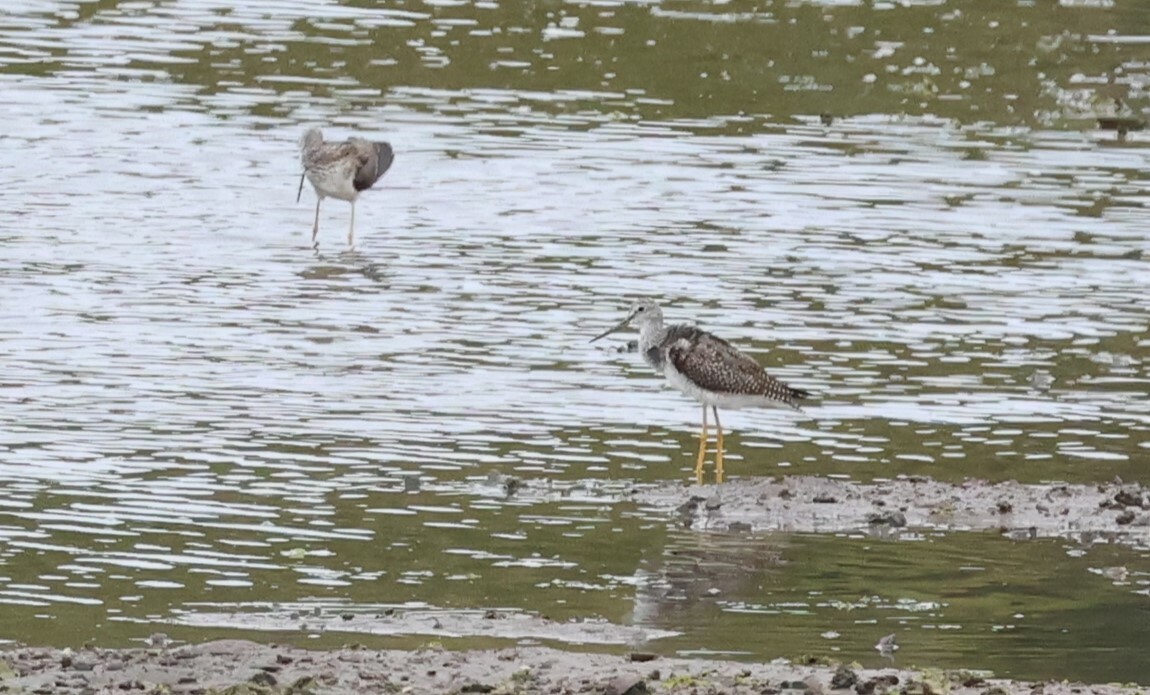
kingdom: Animalia
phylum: Chordata
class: Aves
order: Charadriiformes
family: Scolopacidae
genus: Tringa
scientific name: Tringa melanoleuca
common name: Greater yellowlegs
